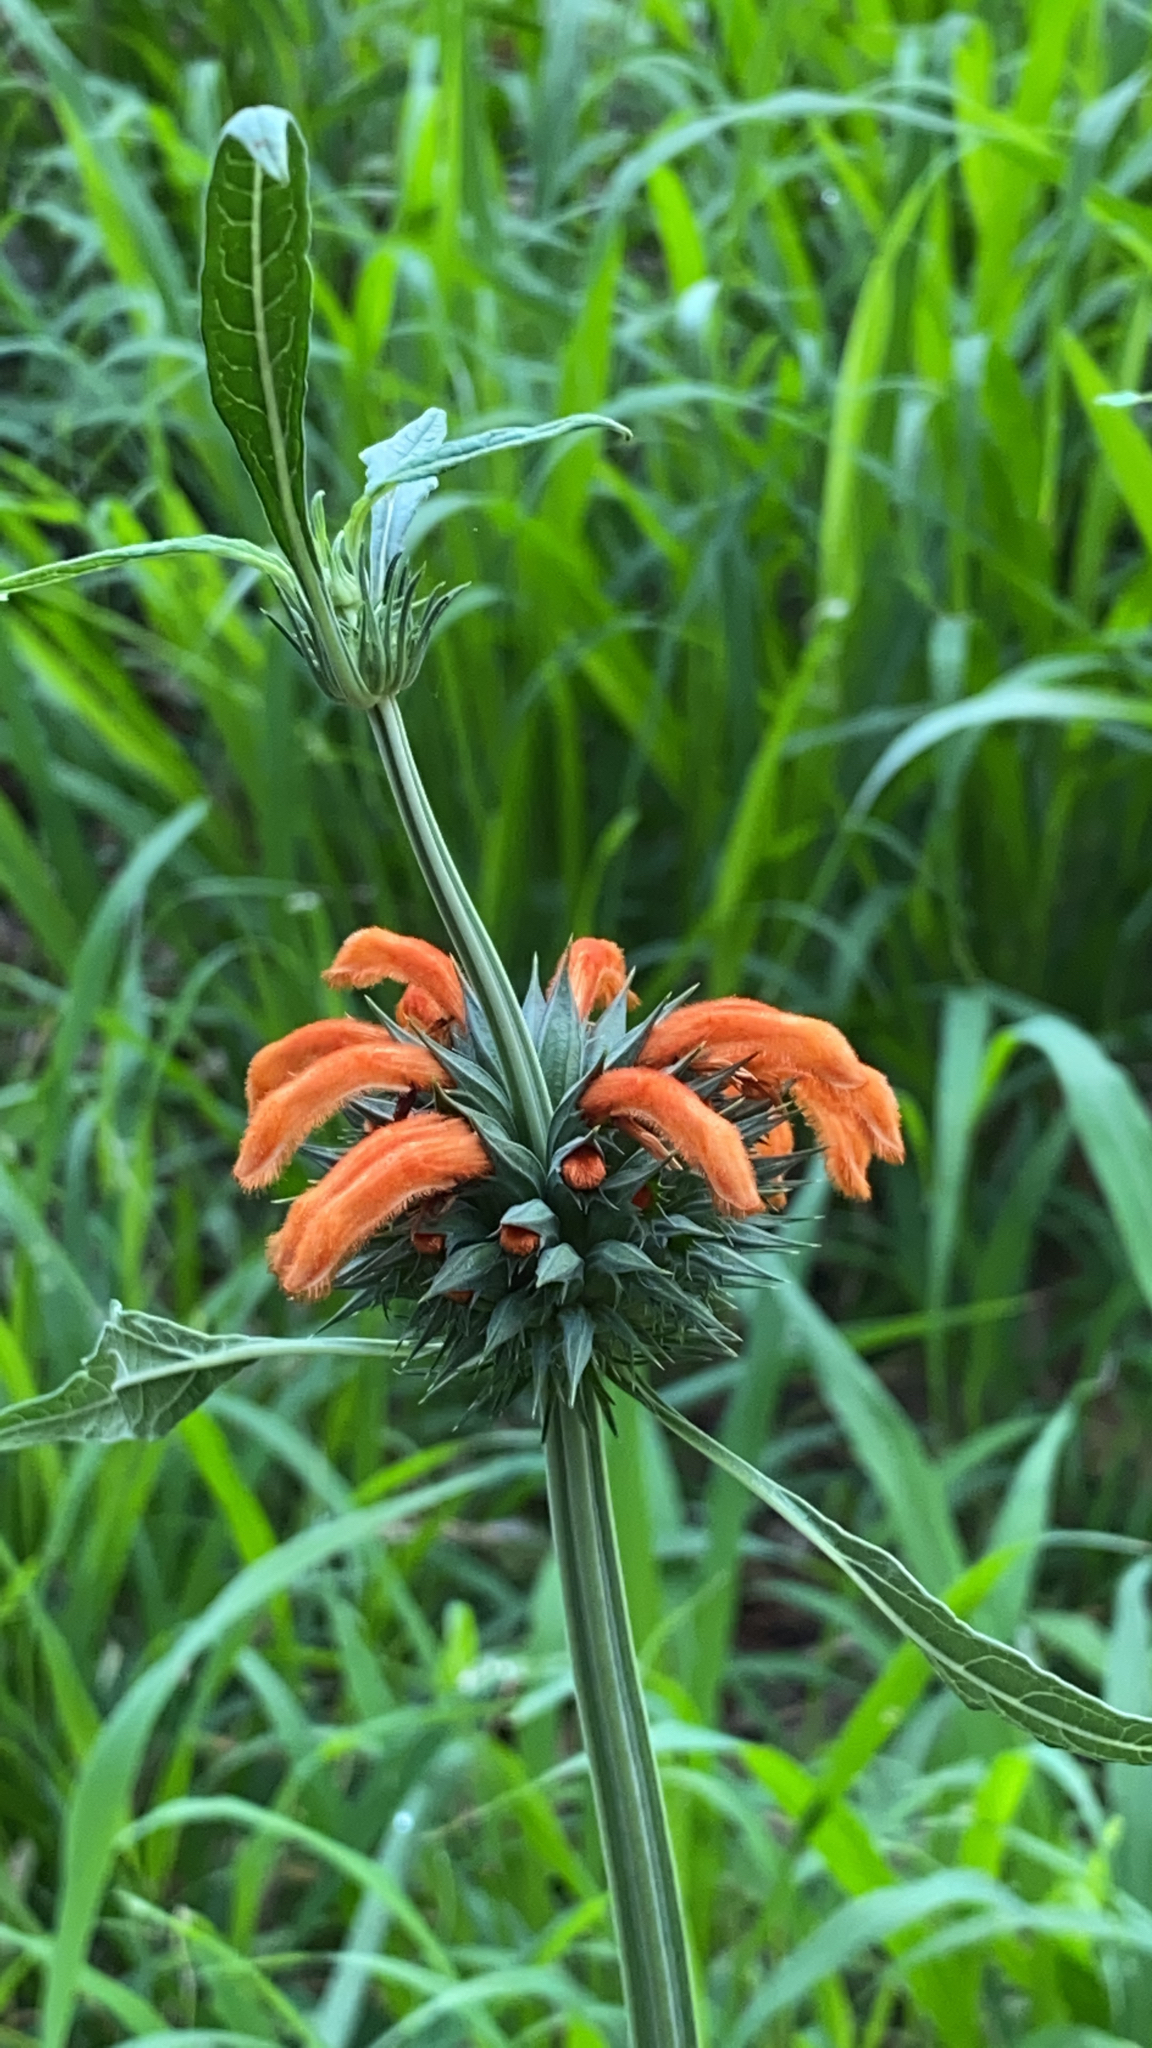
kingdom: Plantae
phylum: Tracheophyta
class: Magnoliopsida
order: Lamiales
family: Lamiaceae
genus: Leonotis
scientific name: Leonotis nepetifolia
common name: Christmas candlestick
